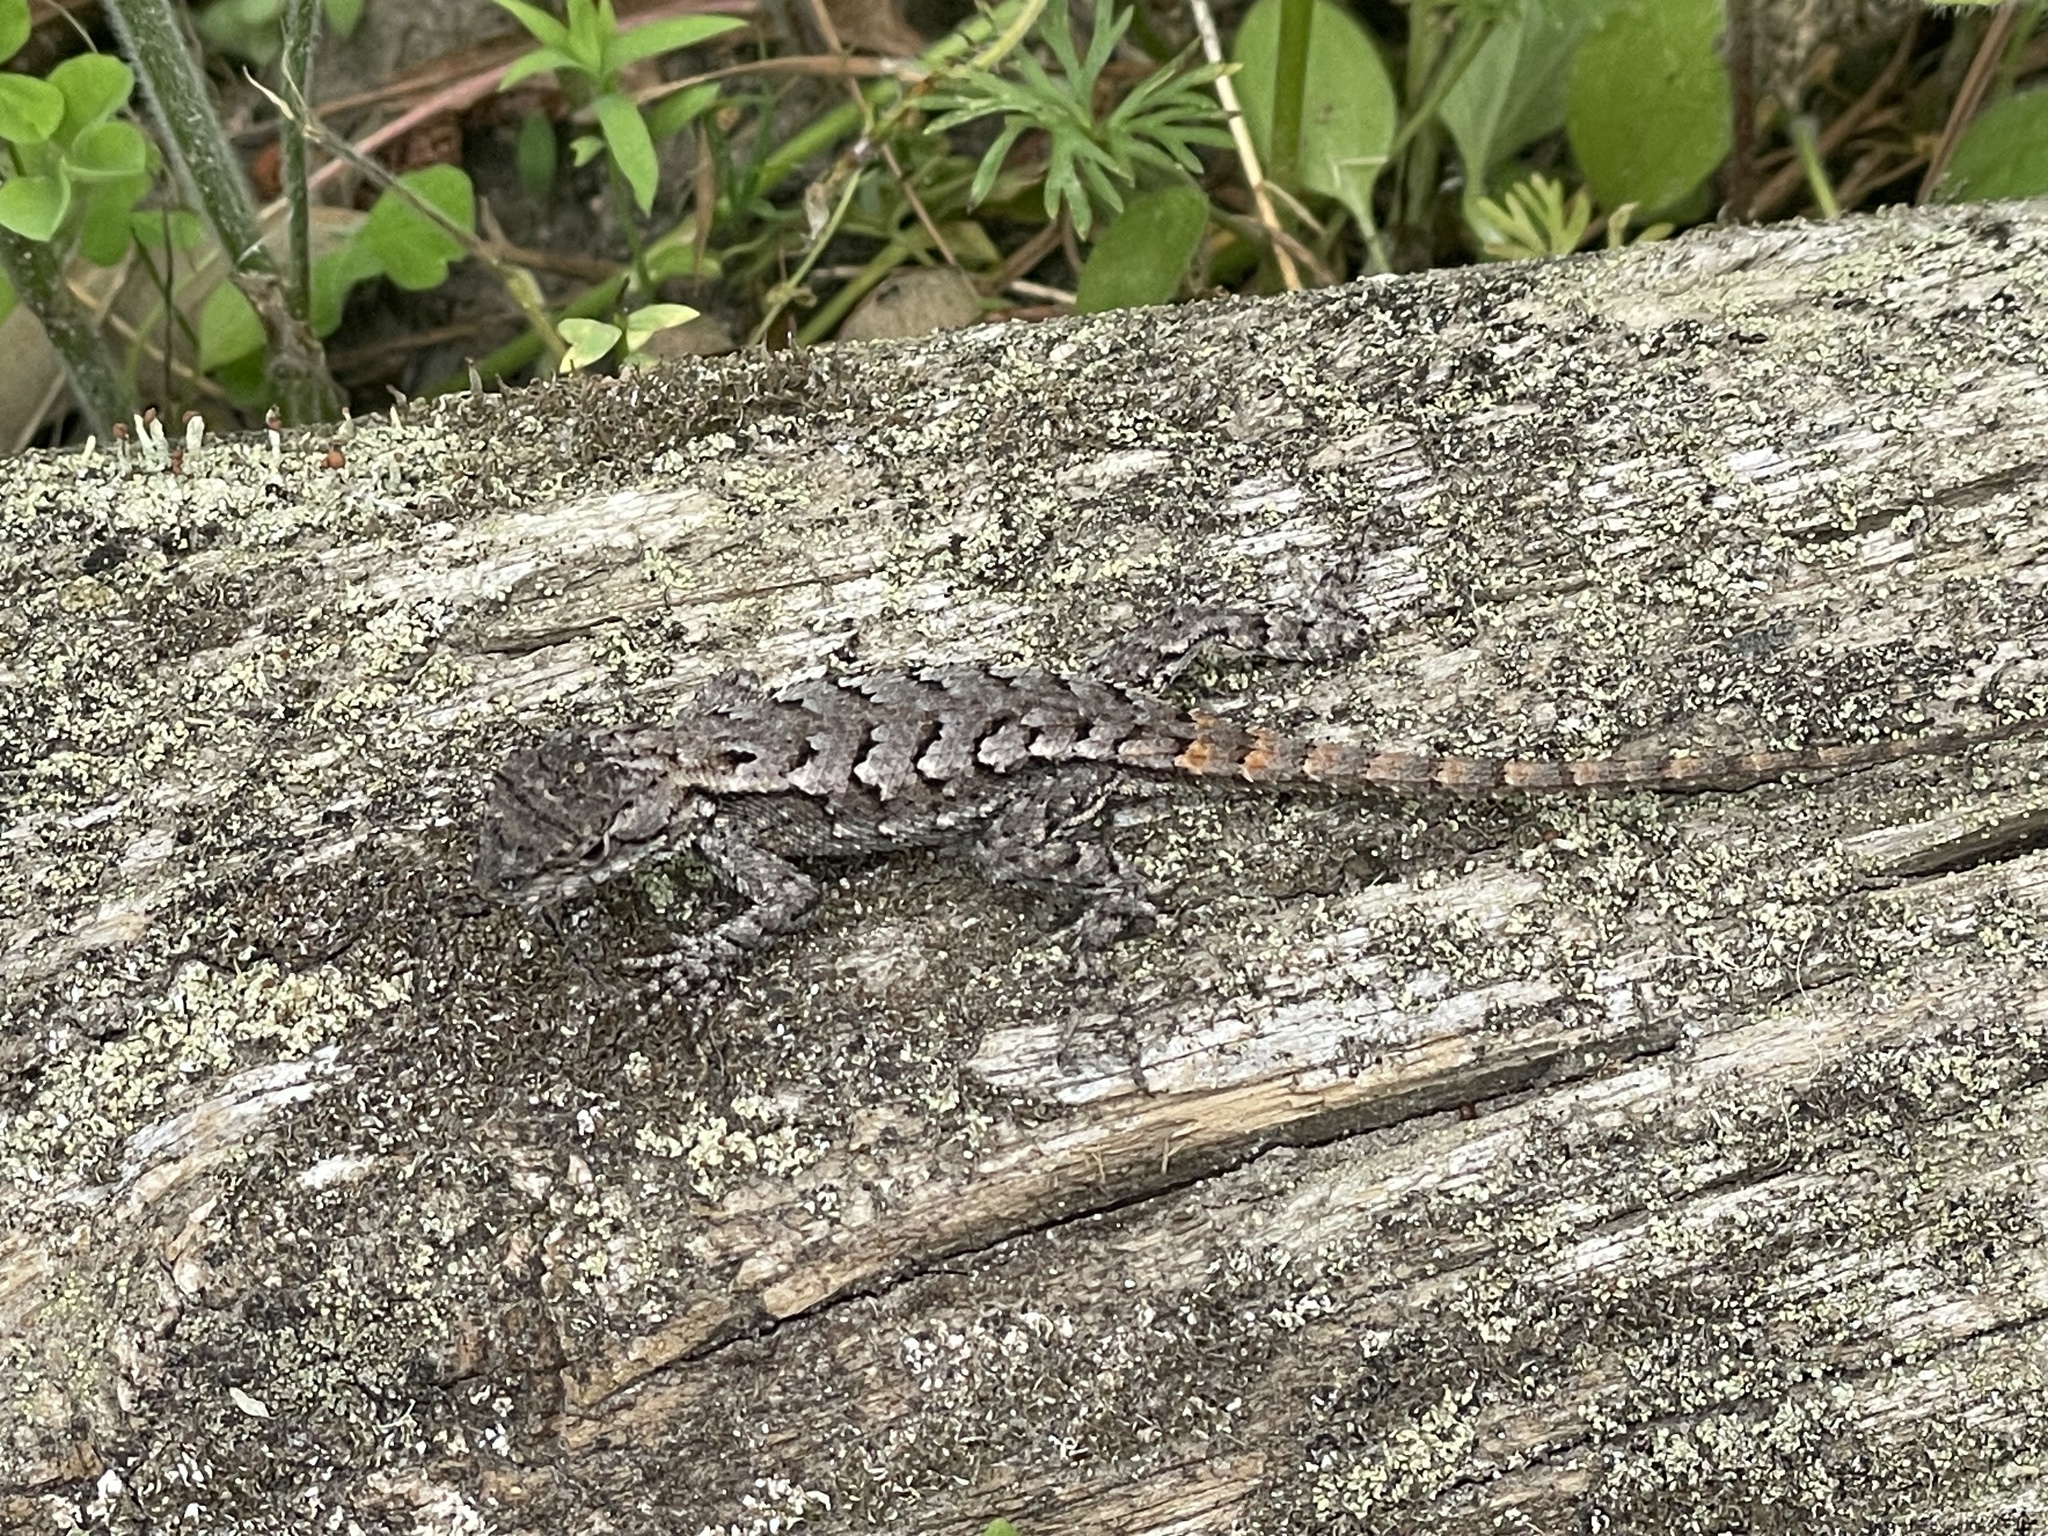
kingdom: Animalia
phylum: Chordata
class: Squamata
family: Phrynosomatidae
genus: Sceloporus
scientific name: Sceloporus undulatus
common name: Eastern fence lizard
